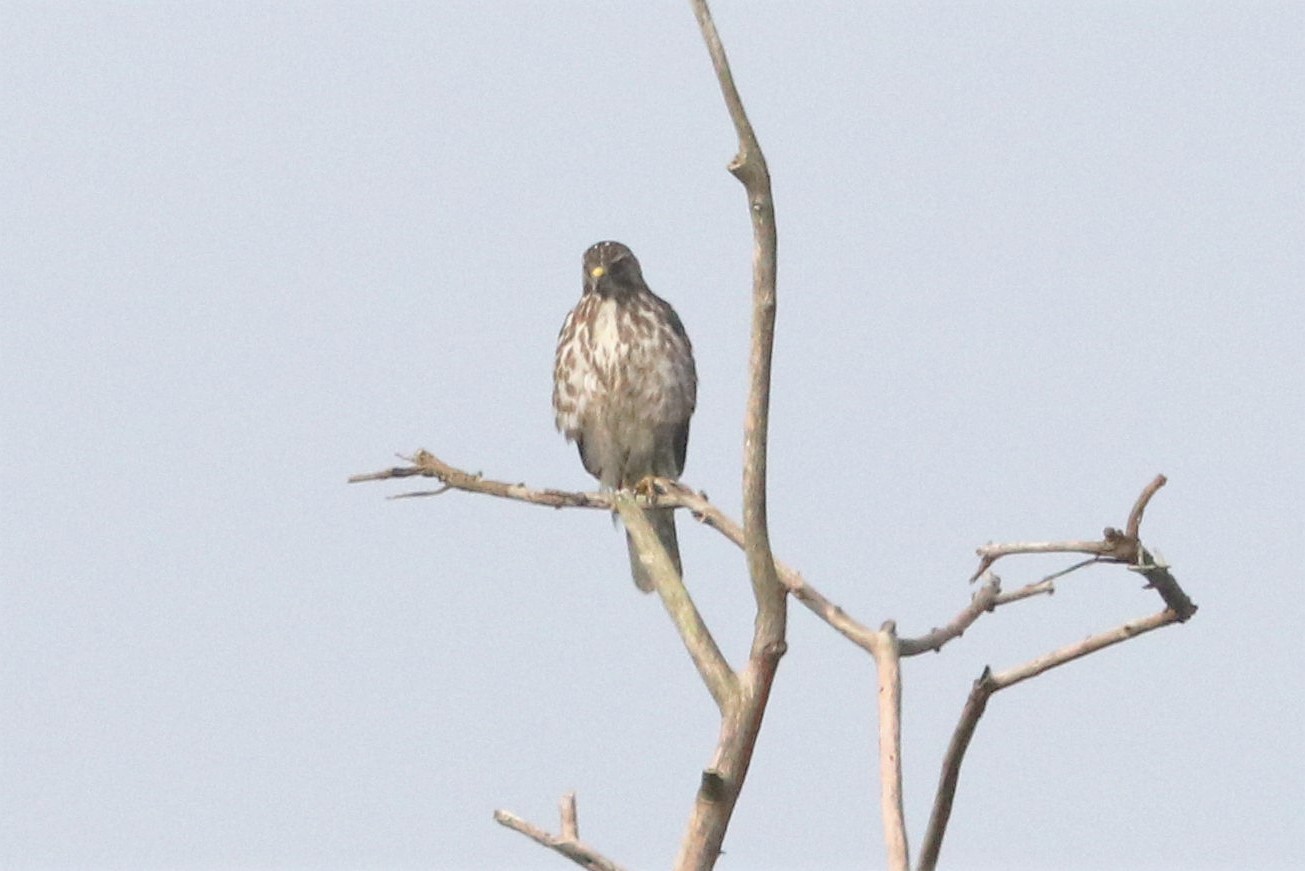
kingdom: Animalia
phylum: Chordata
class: Aves
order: Accipitriformes
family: Accipitridae
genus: Buteo
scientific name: Buteo platypterus
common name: Broad-winged hawk
